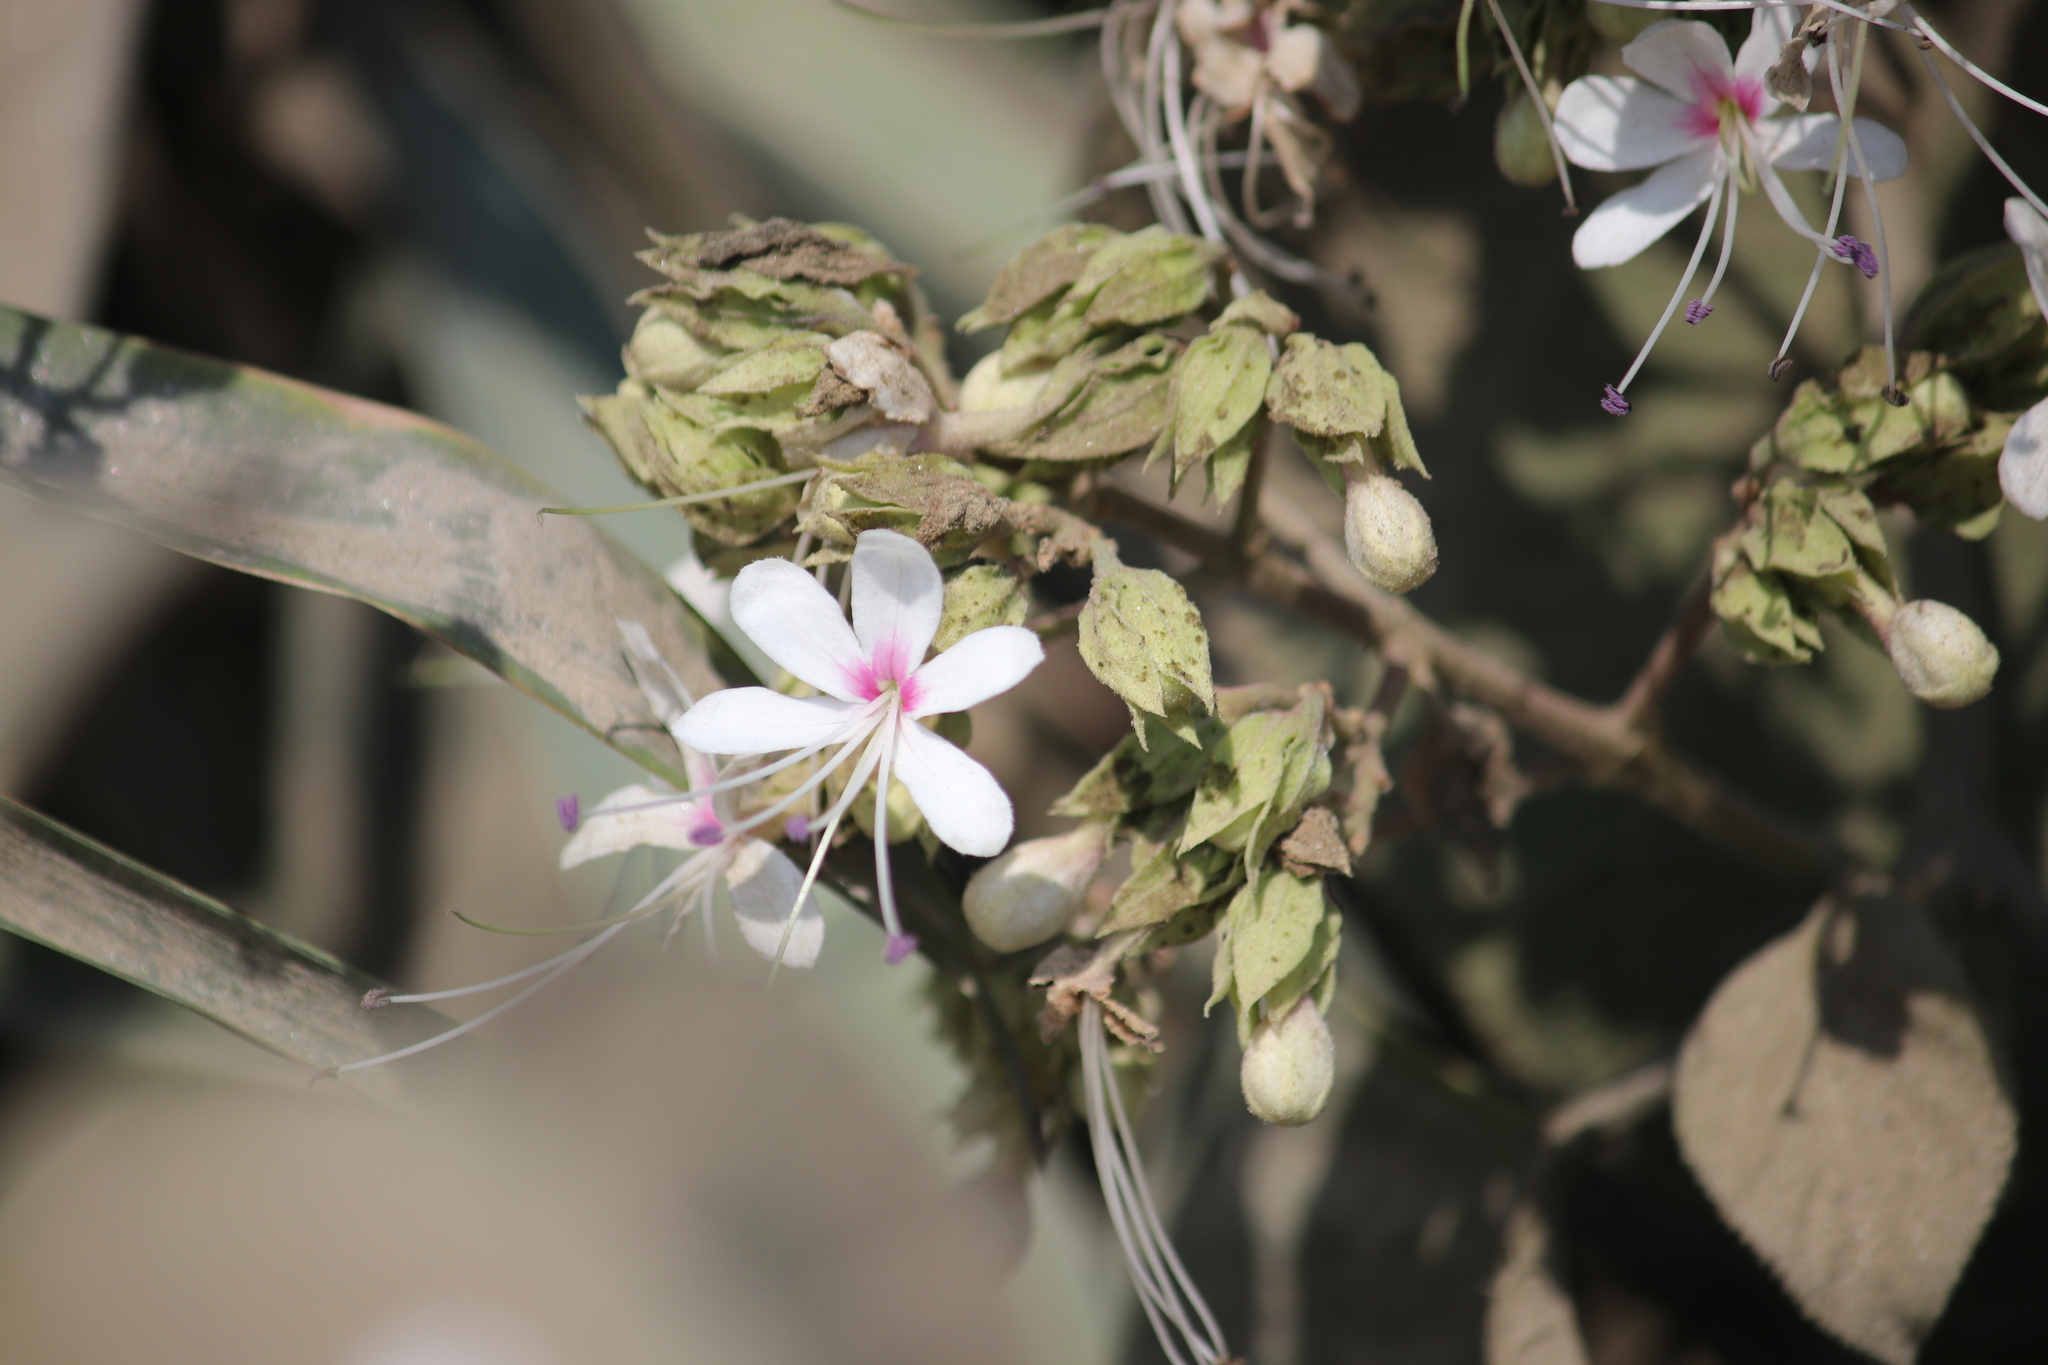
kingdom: Plantae
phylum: Tracheophyta
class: Magnoliopsida
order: Lamiales
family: Lamiaceae
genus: Clerodendrum
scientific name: Clerodendrum infortunatum
